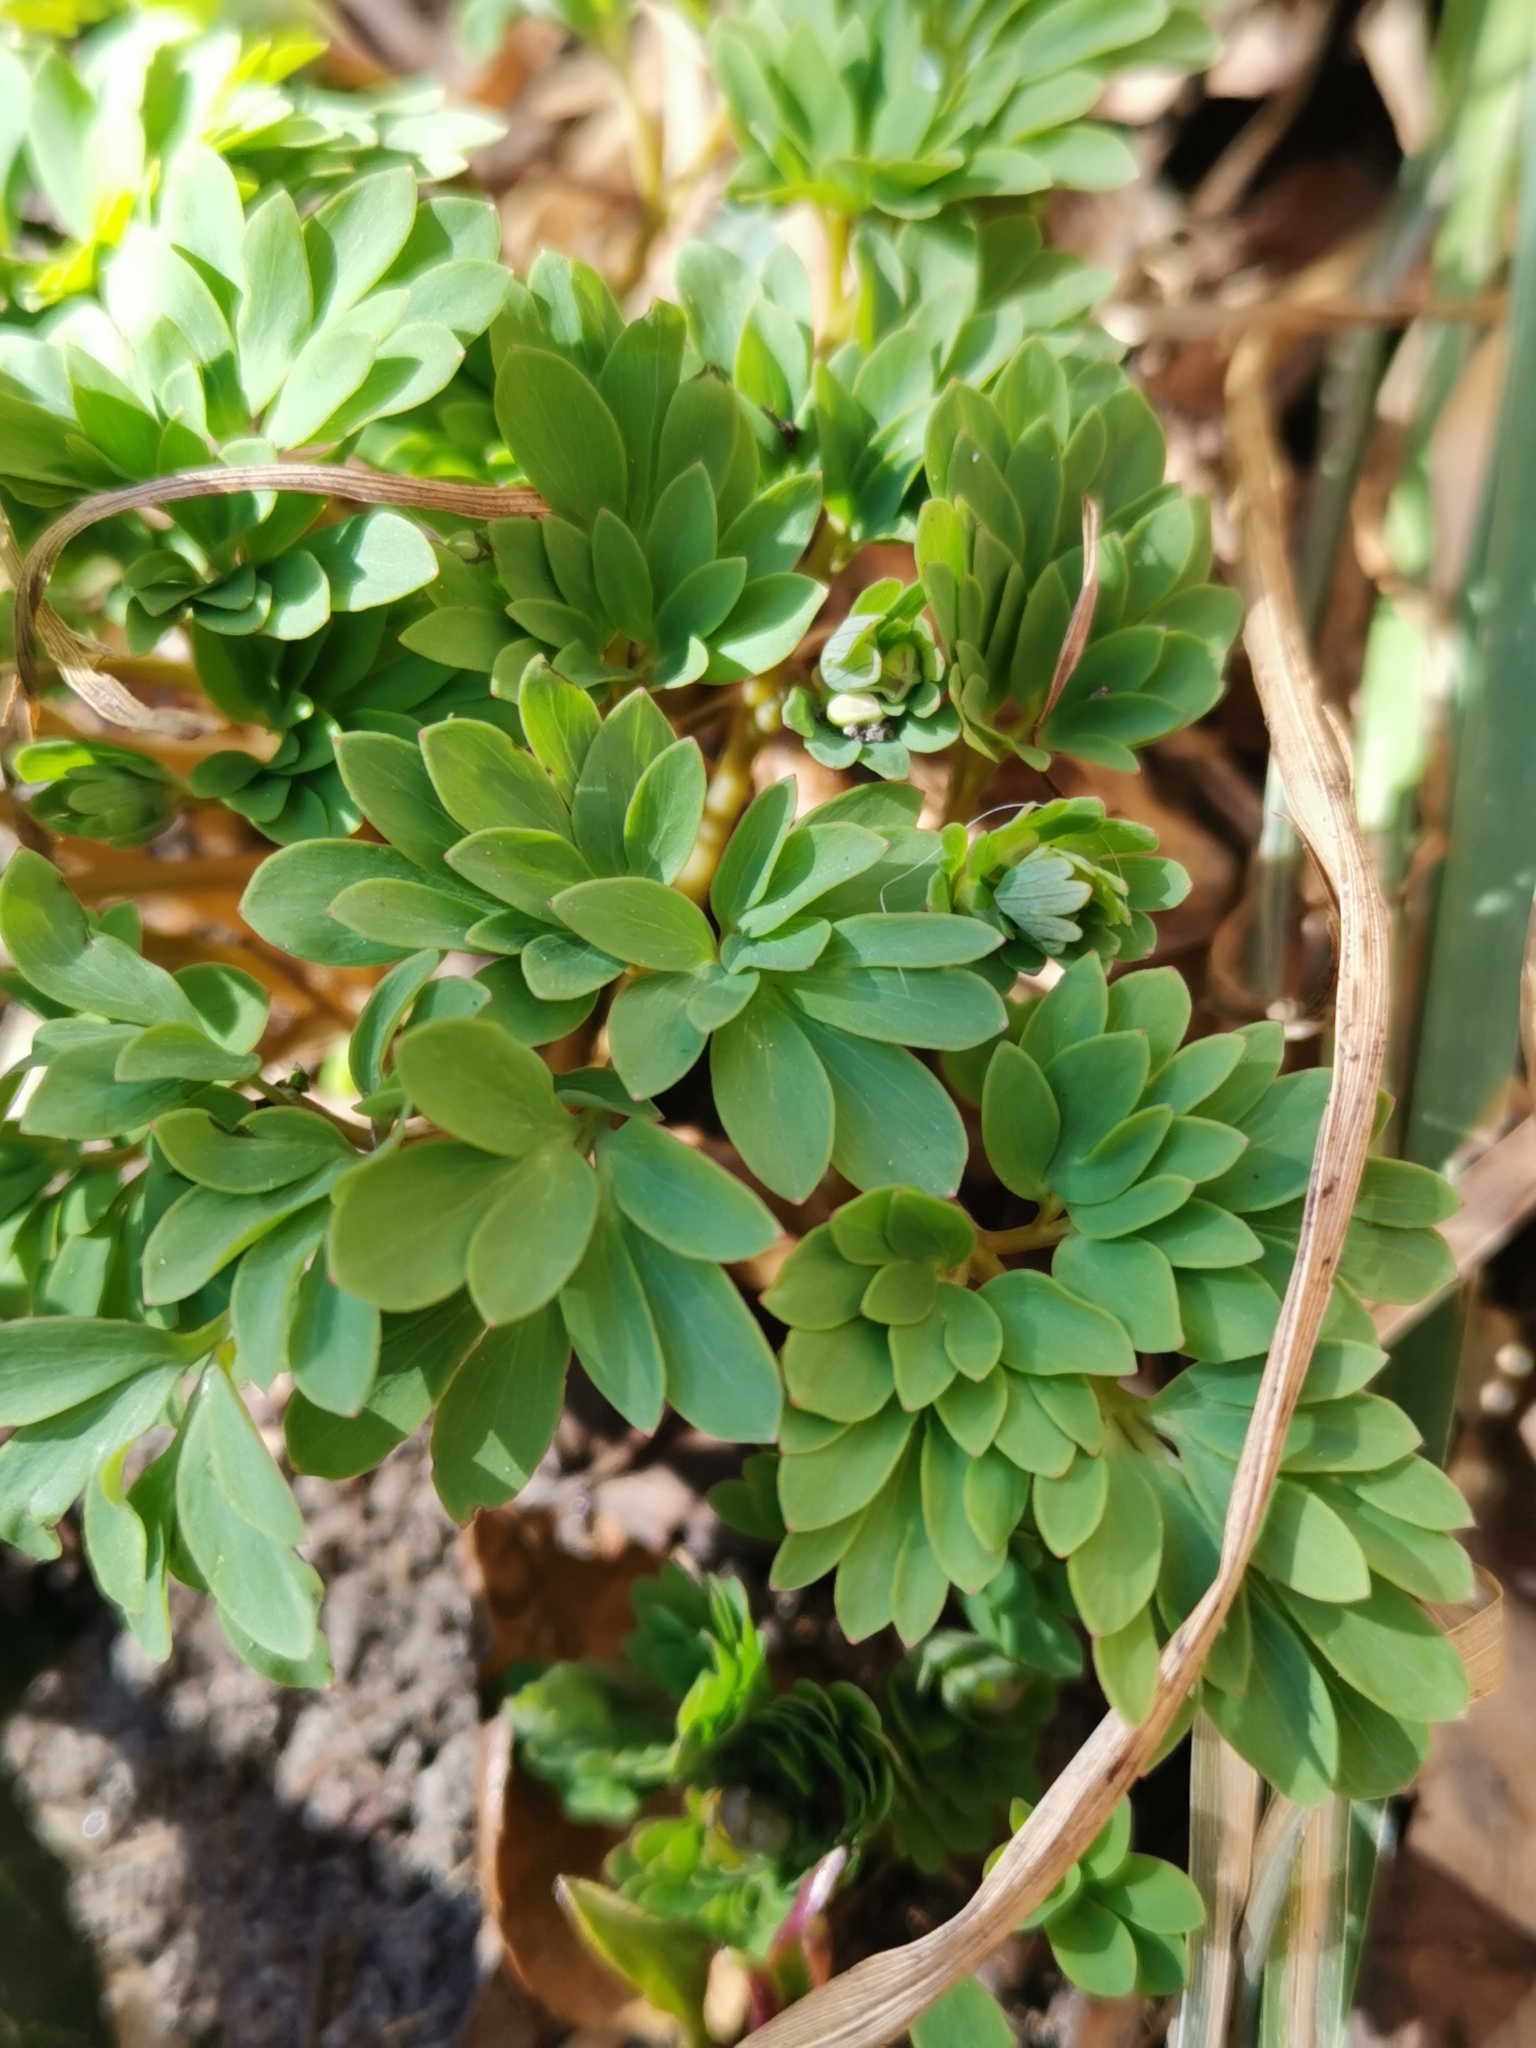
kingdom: Plantae
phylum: Tracheophyta
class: Magnoliopsida
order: Ranunculales
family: Papaveraceae
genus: Corydalis
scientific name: Corydalis solida
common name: Bird-in-a-bush
